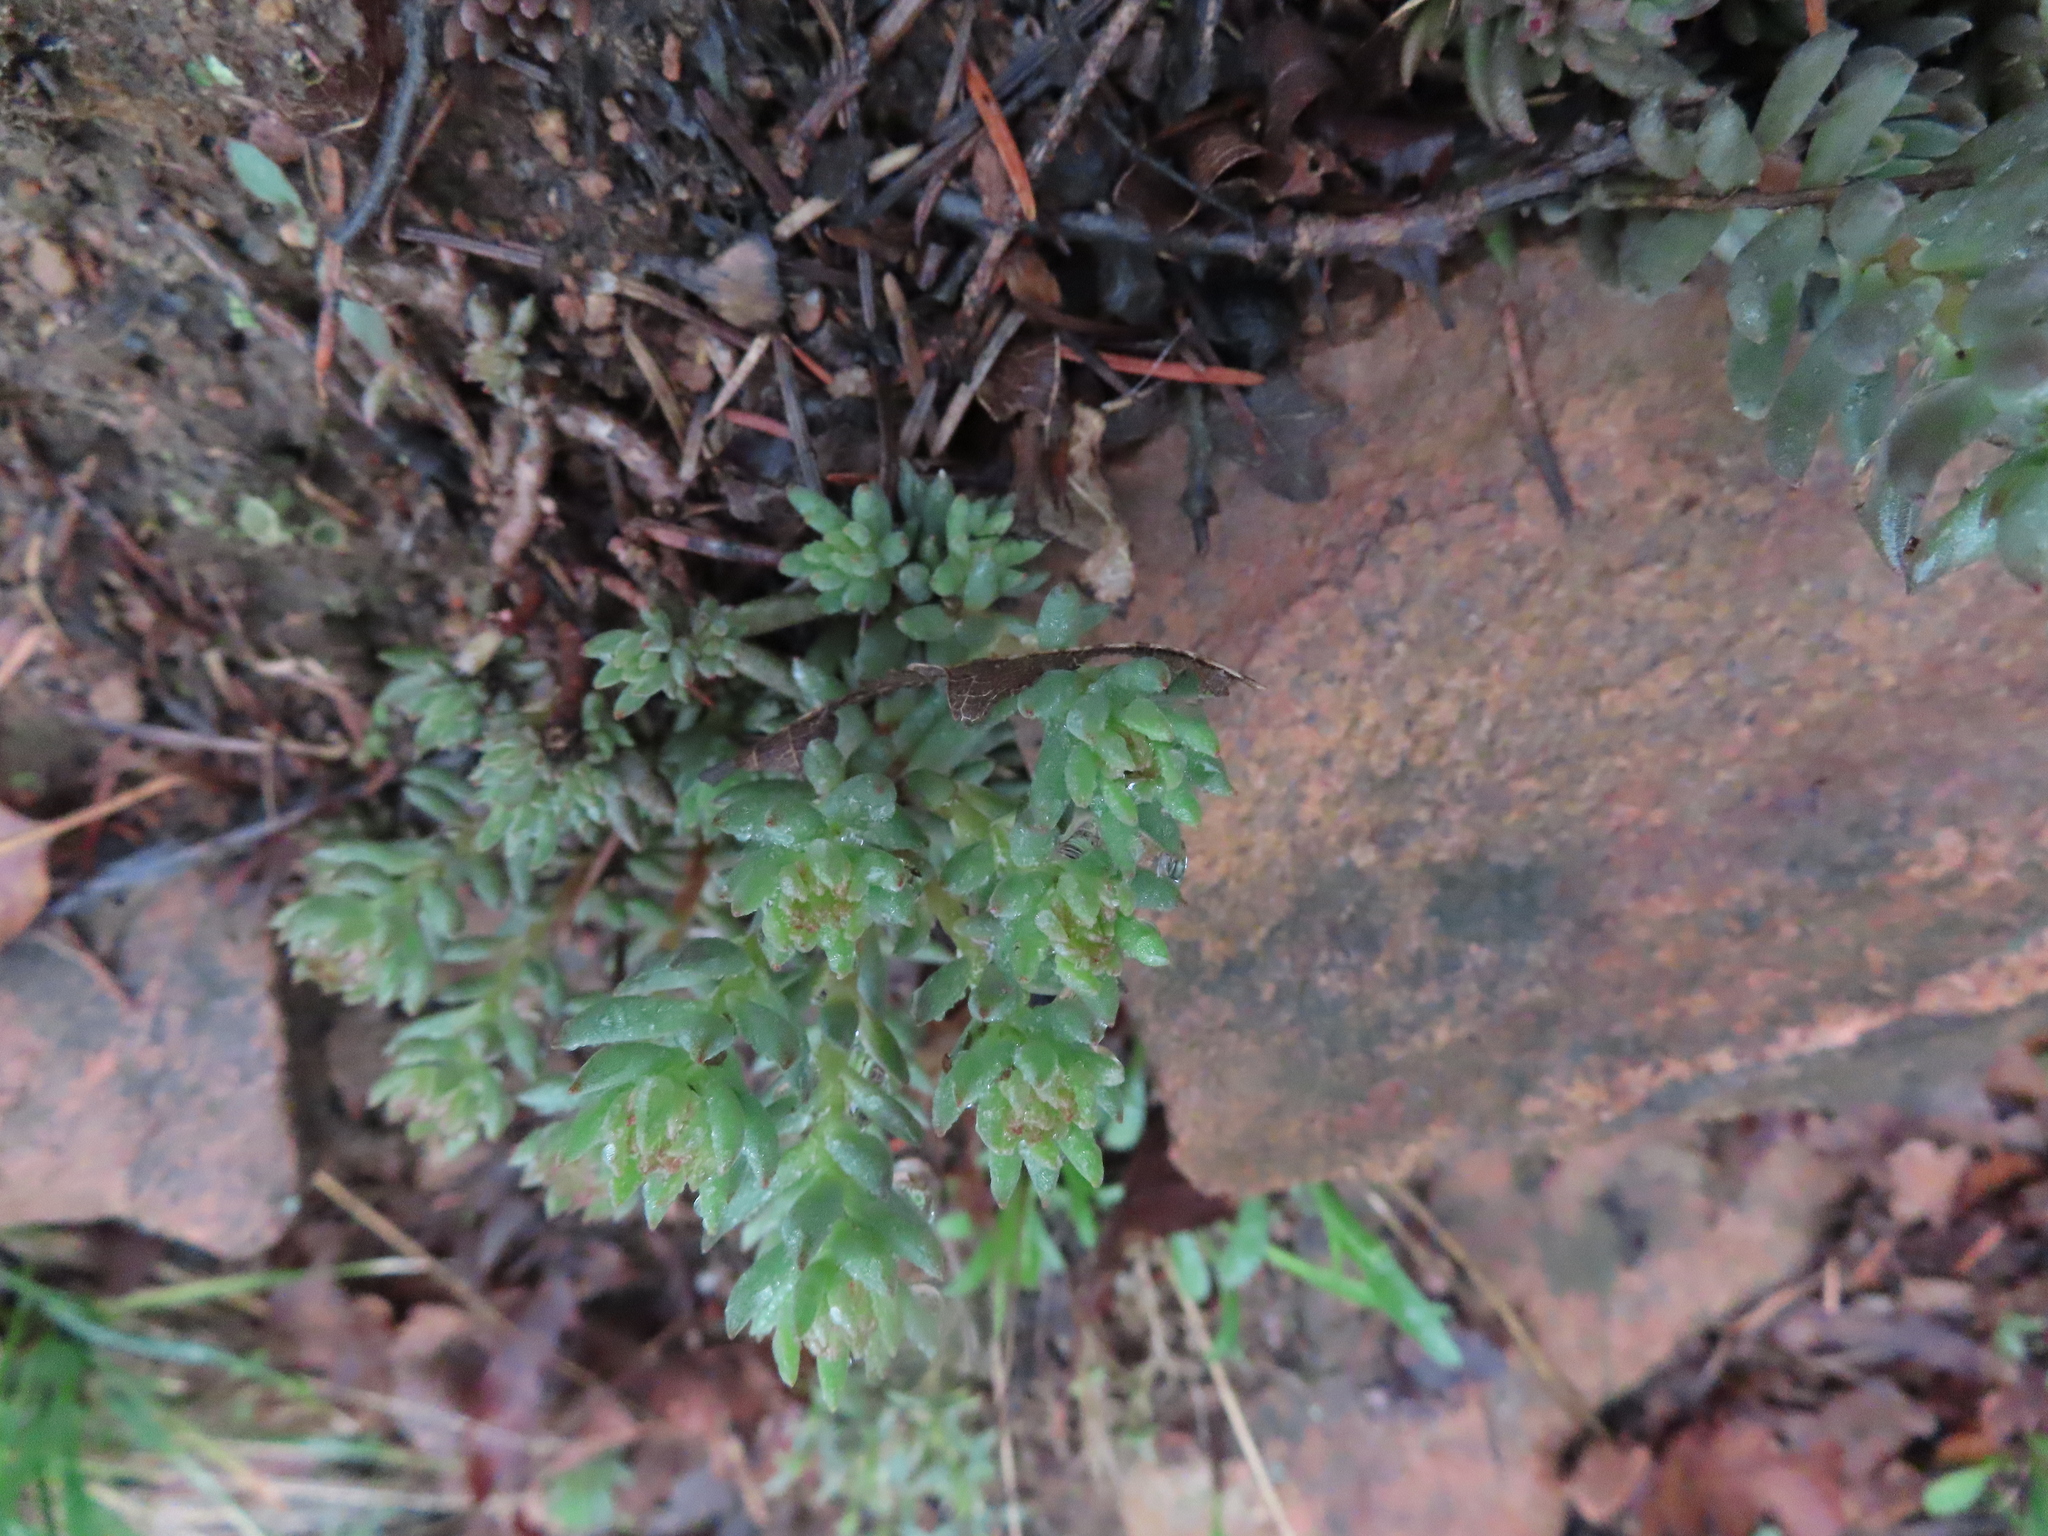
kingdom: Plantae
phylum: Tracheophyta
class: Magnoliopsida
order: Saxifragales
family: Crassulaceae
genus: Sedum
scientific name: Sedum lanceolatum
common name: Common stonecrop
